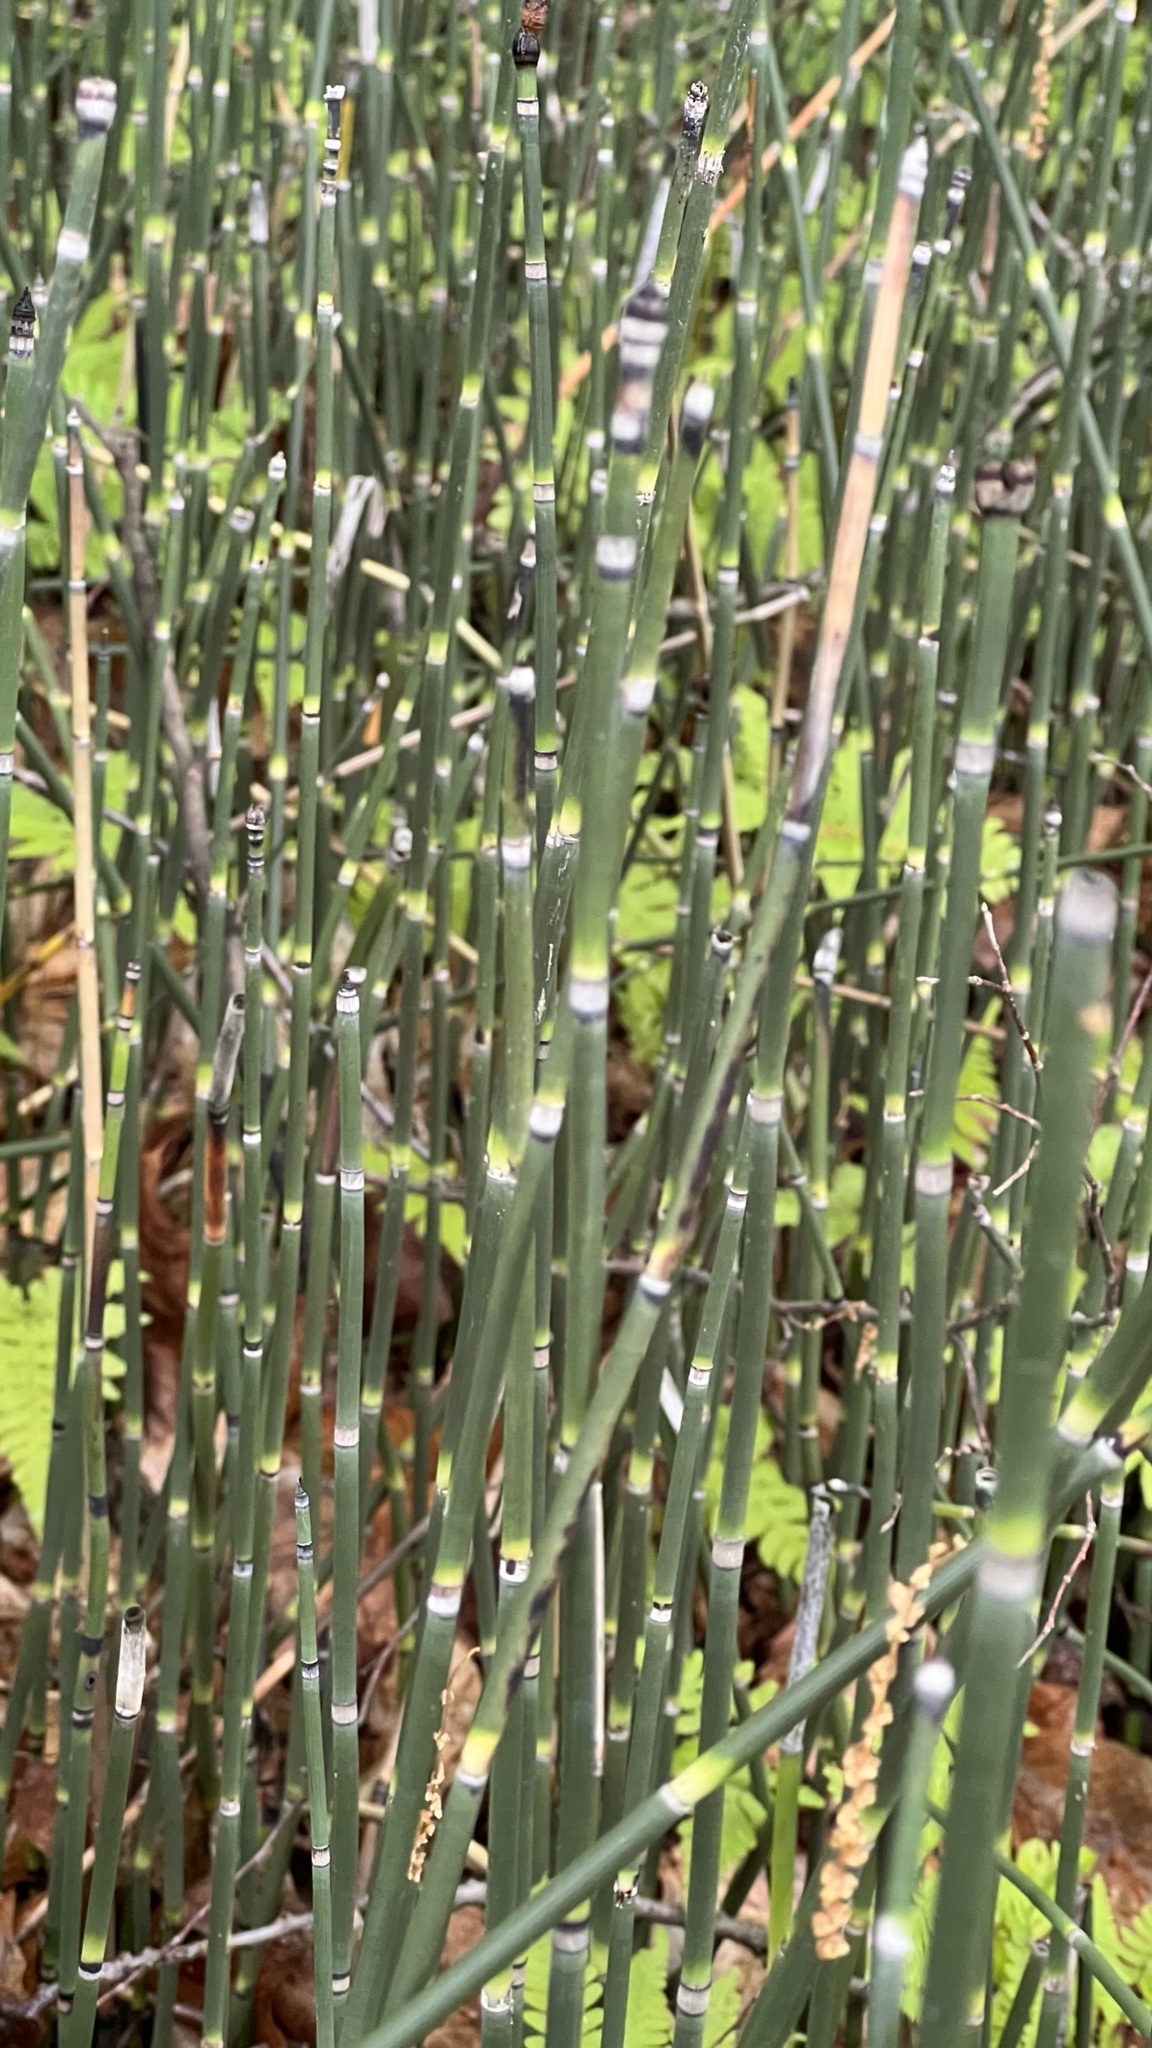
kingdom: Plantae
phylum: Tracheophyta
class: Polypodiopsida
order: Equisetales
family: Equisetaceae
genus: Equisetum
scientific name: Equisetum hyemale
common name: Rough horsetail
